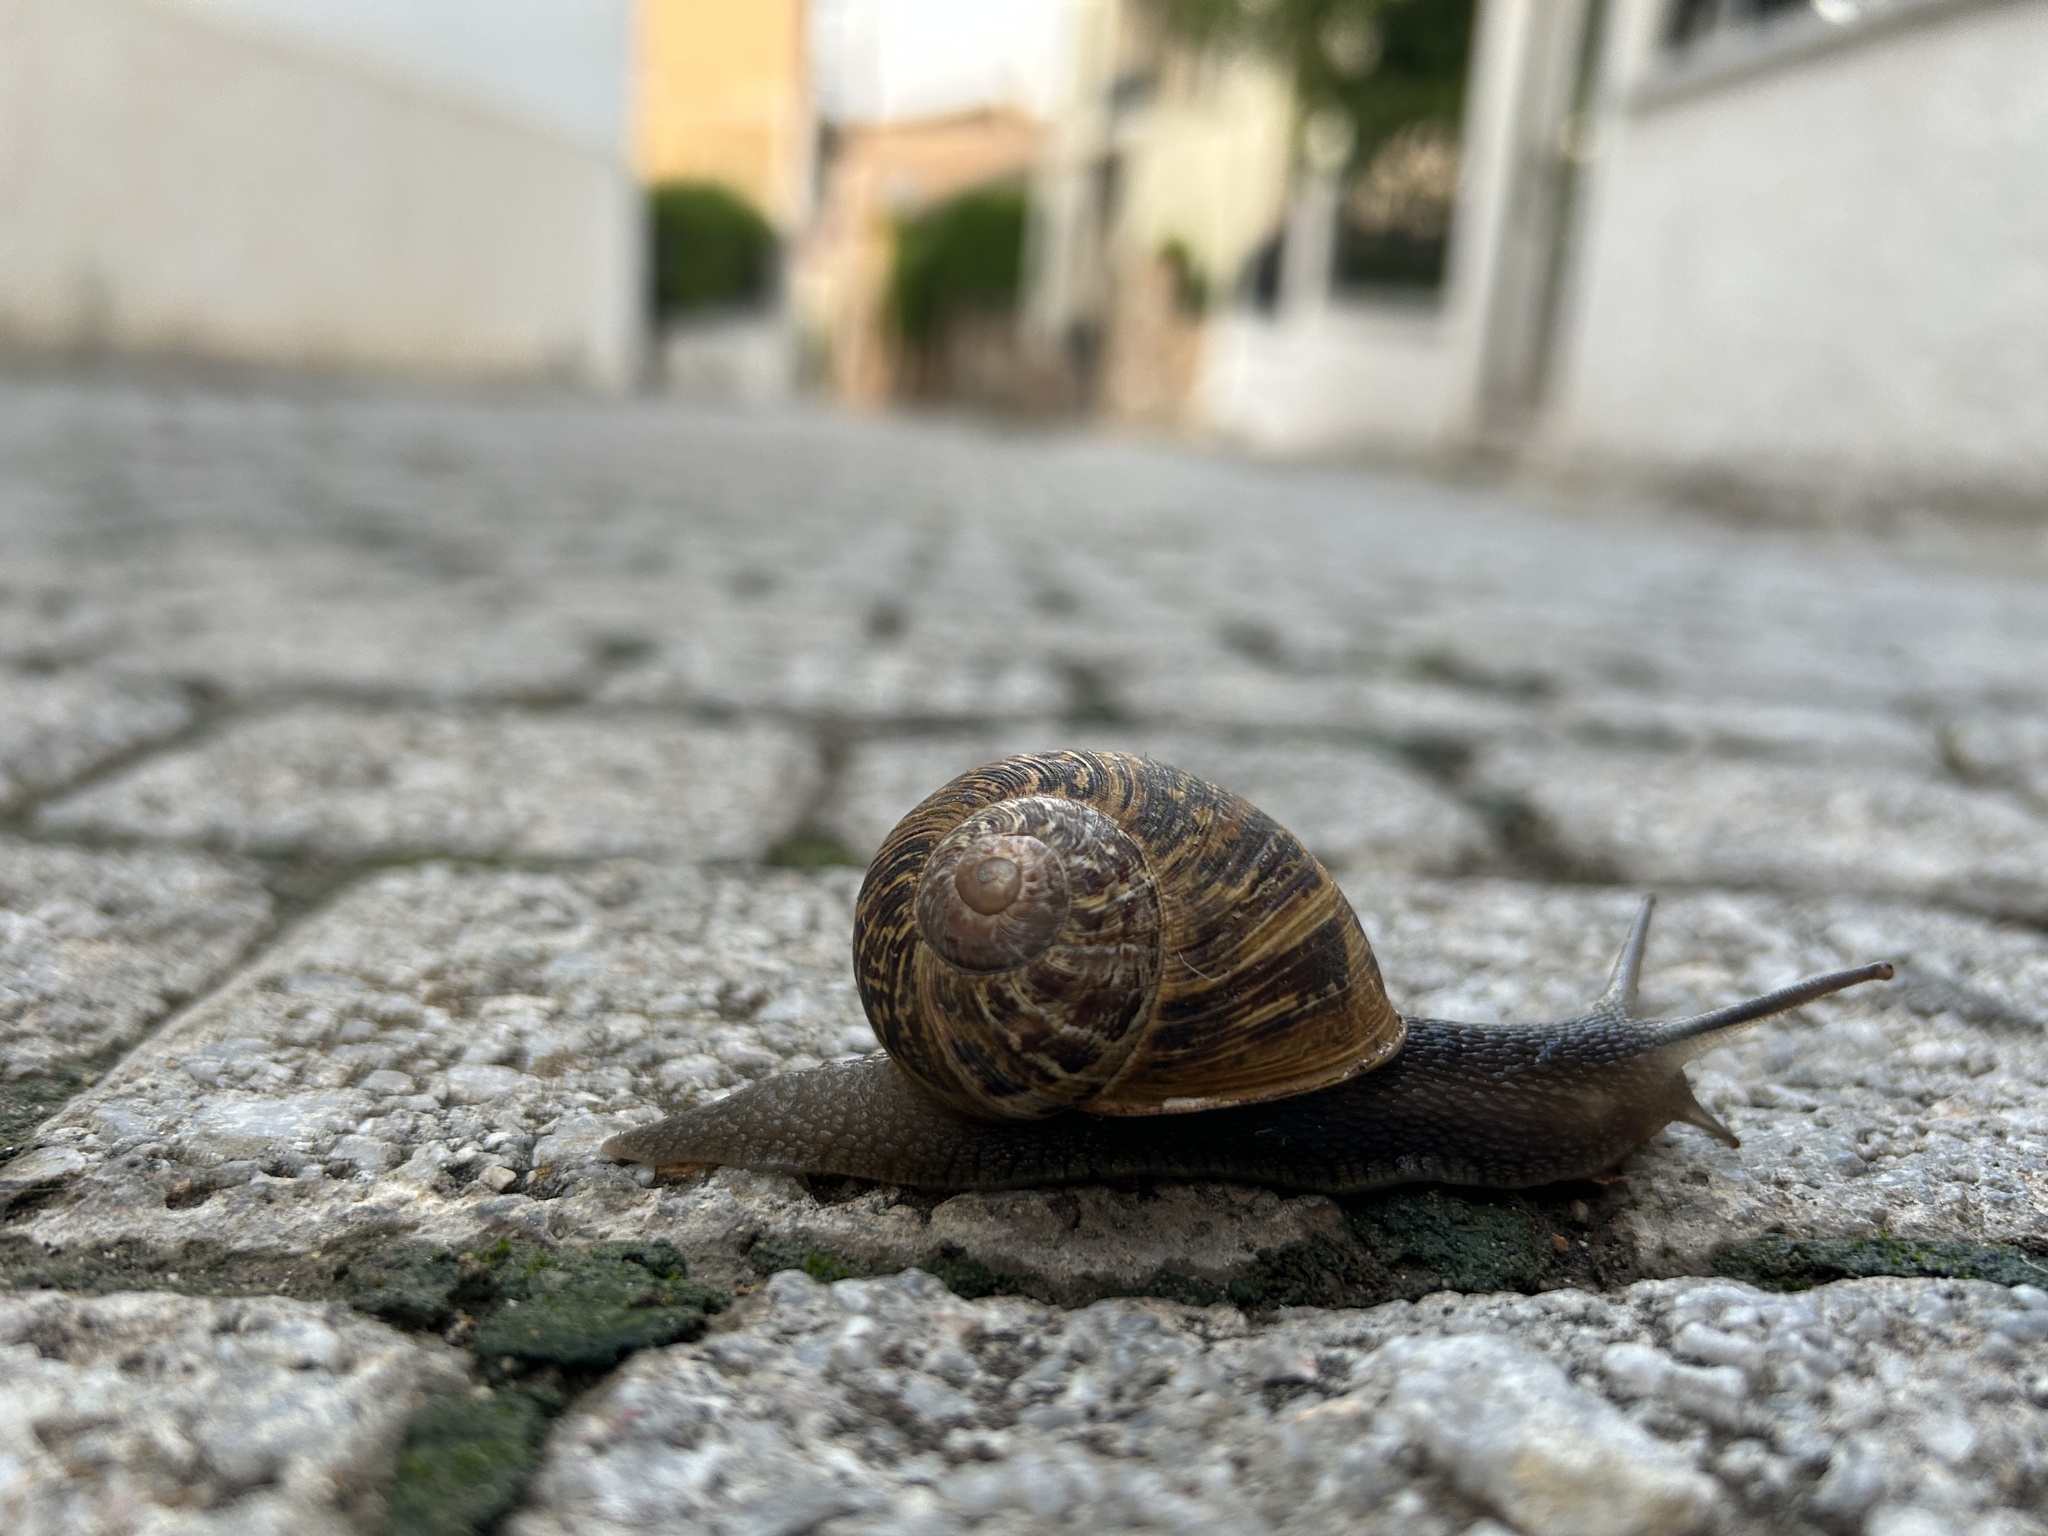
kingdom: Animalia
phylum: Mollusca
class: Gastropoda
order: Stylommatophora
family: Helicidae
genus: Cornu
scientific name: Cornu aspersum
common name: Brown garden snail
